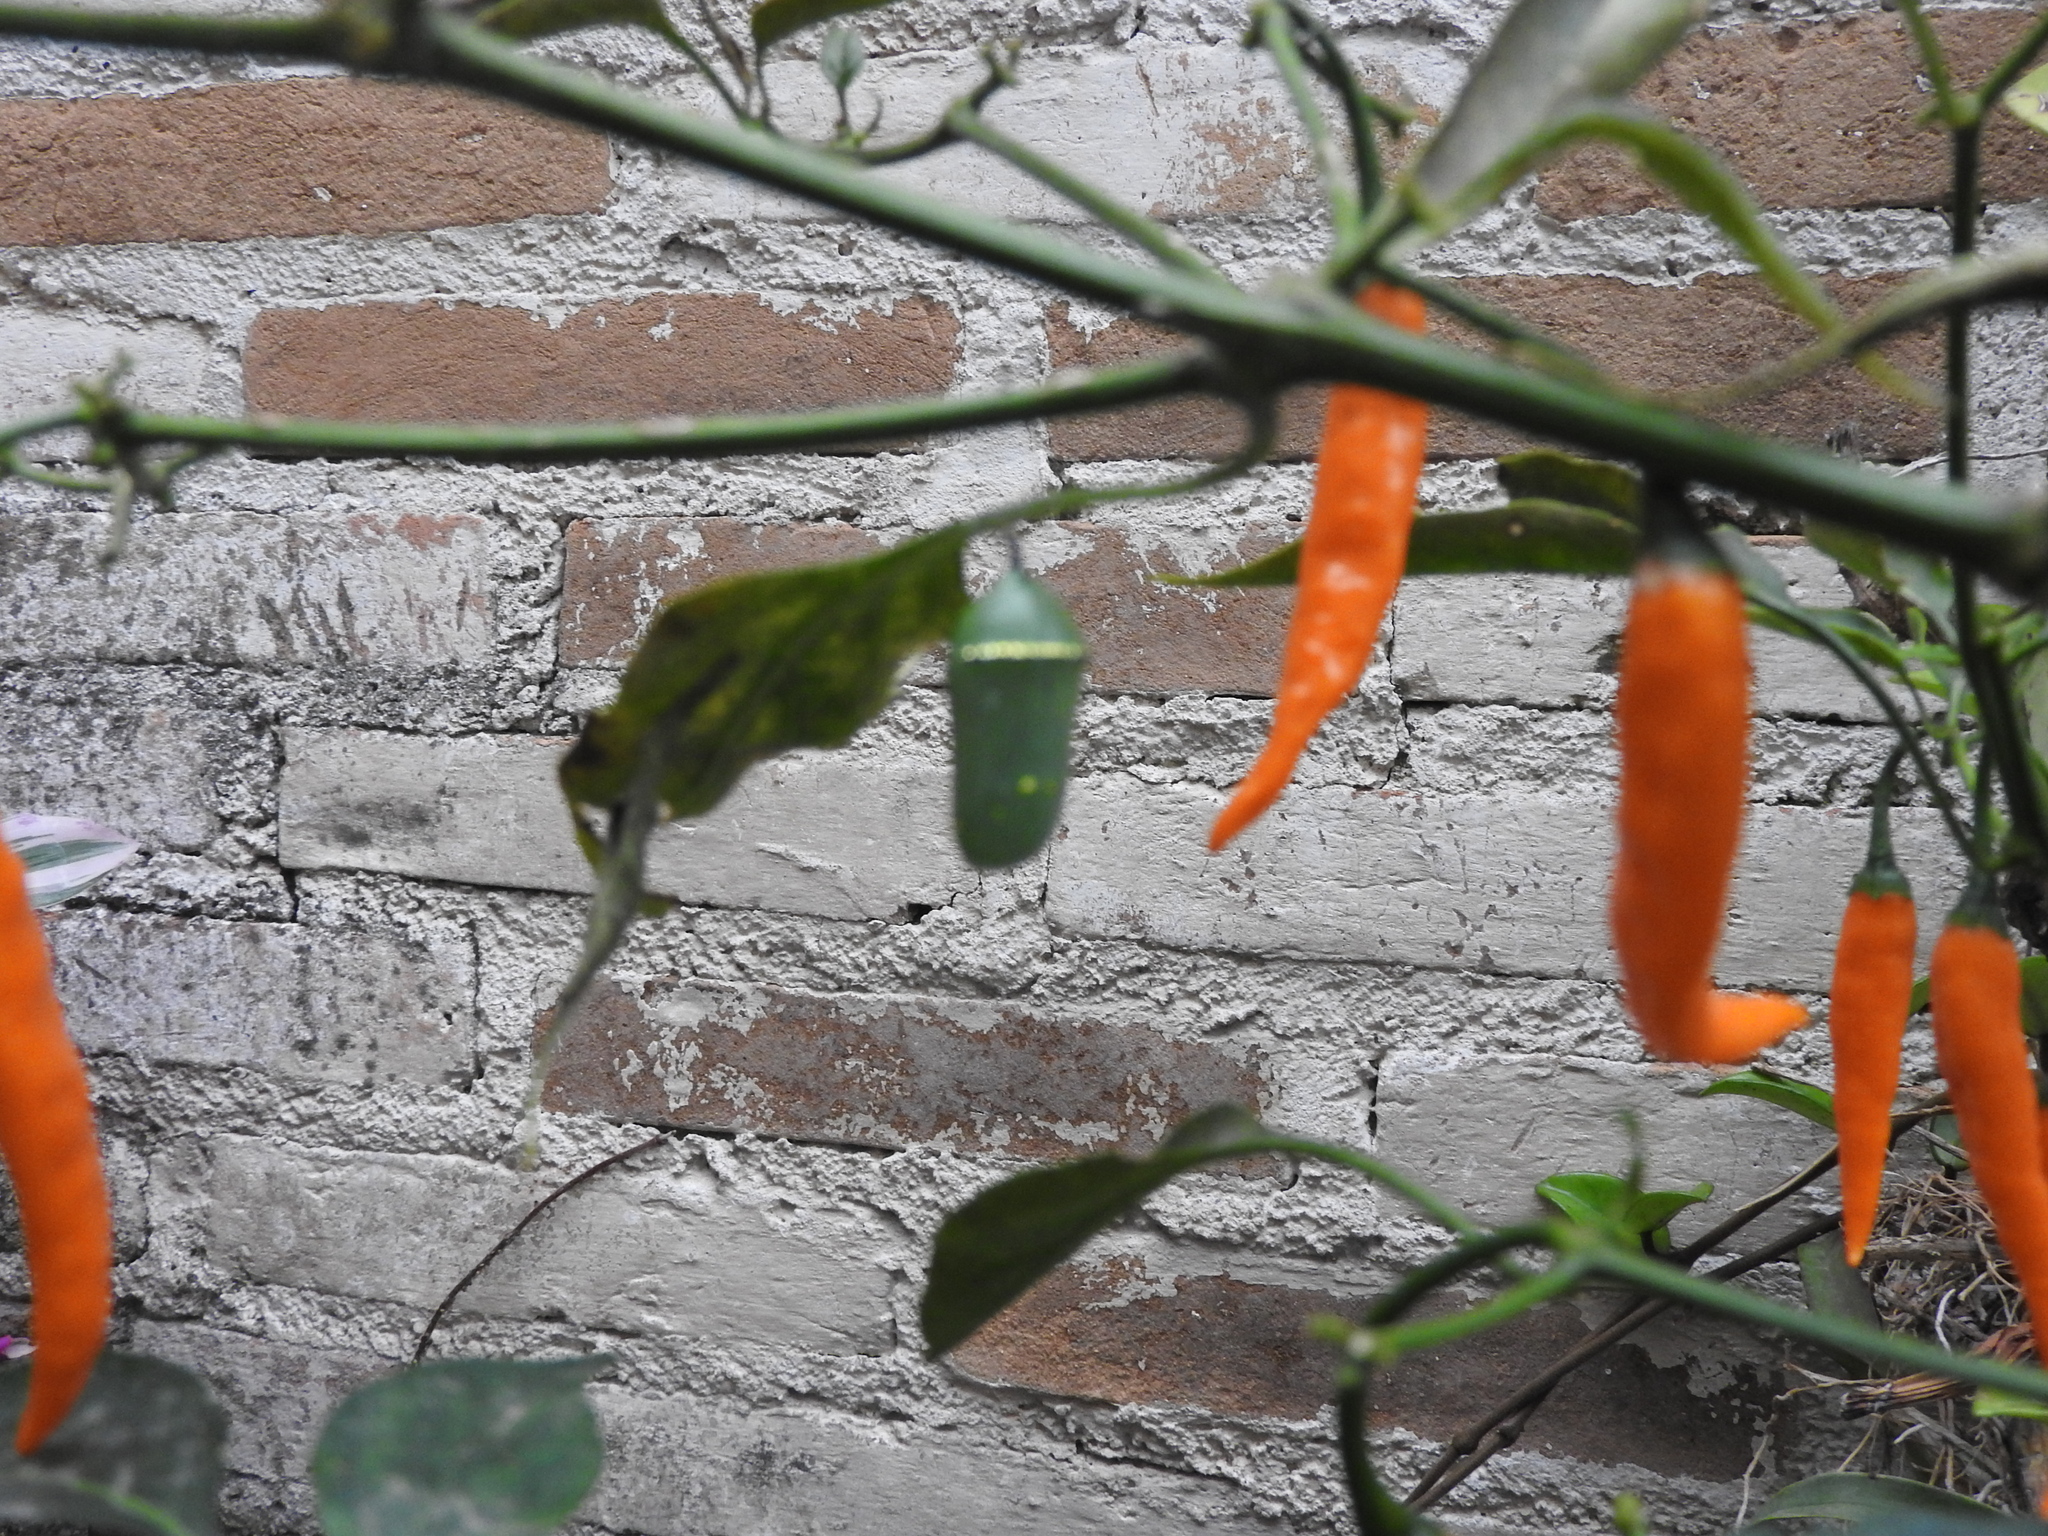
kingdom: Animalia
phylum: Arthropoda
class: Insecta
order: Lepidoptera
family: Nymphalidae
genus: Danaus
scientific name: Danaus plexippus
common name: Monarch
